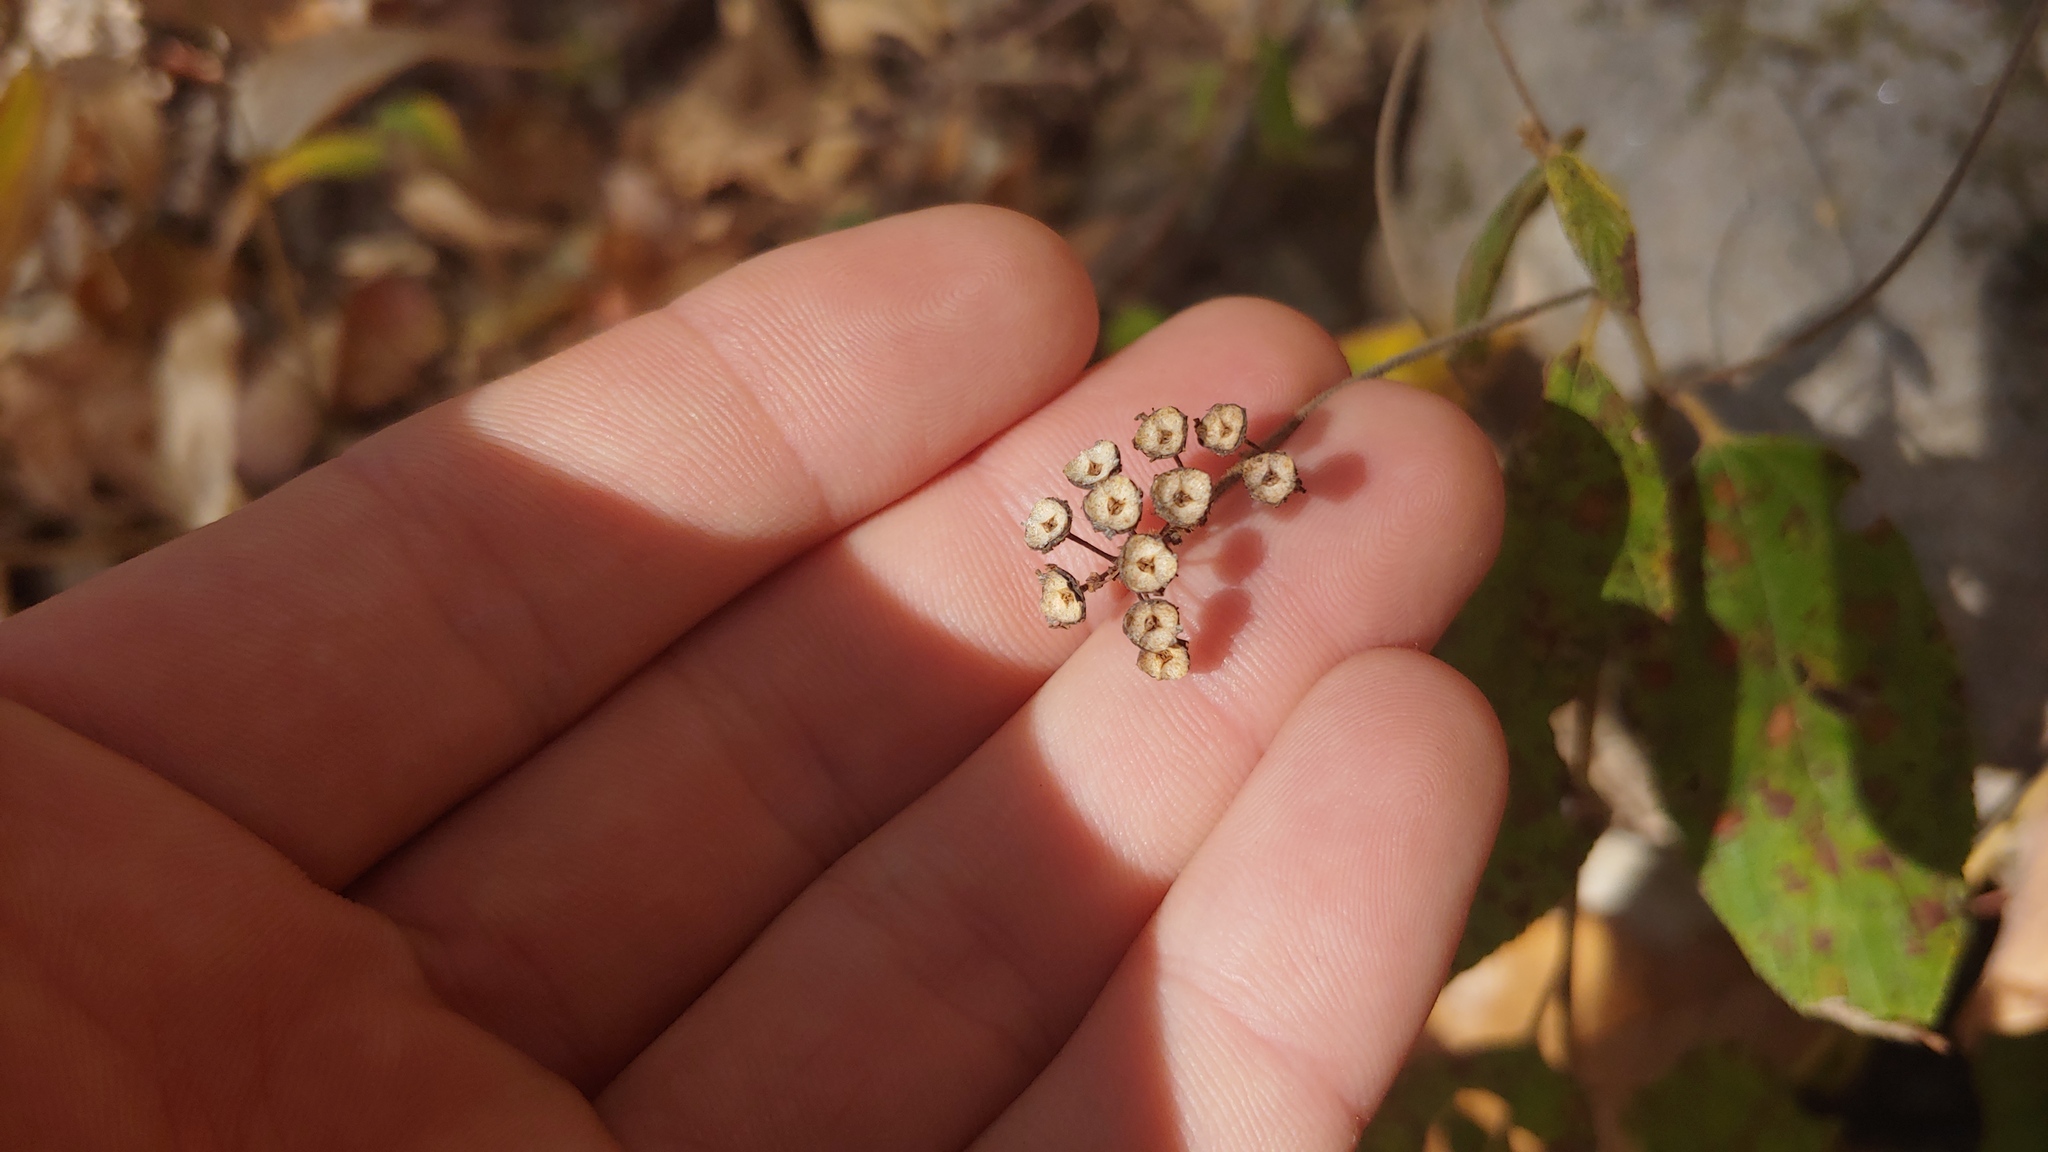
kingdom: Plantae
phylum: Tracheophyta
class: Magnoliopsida
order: Rosales
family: Rhamnaceae
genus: Ceanothus
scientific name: Ceanothus americanus
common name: Redroot
